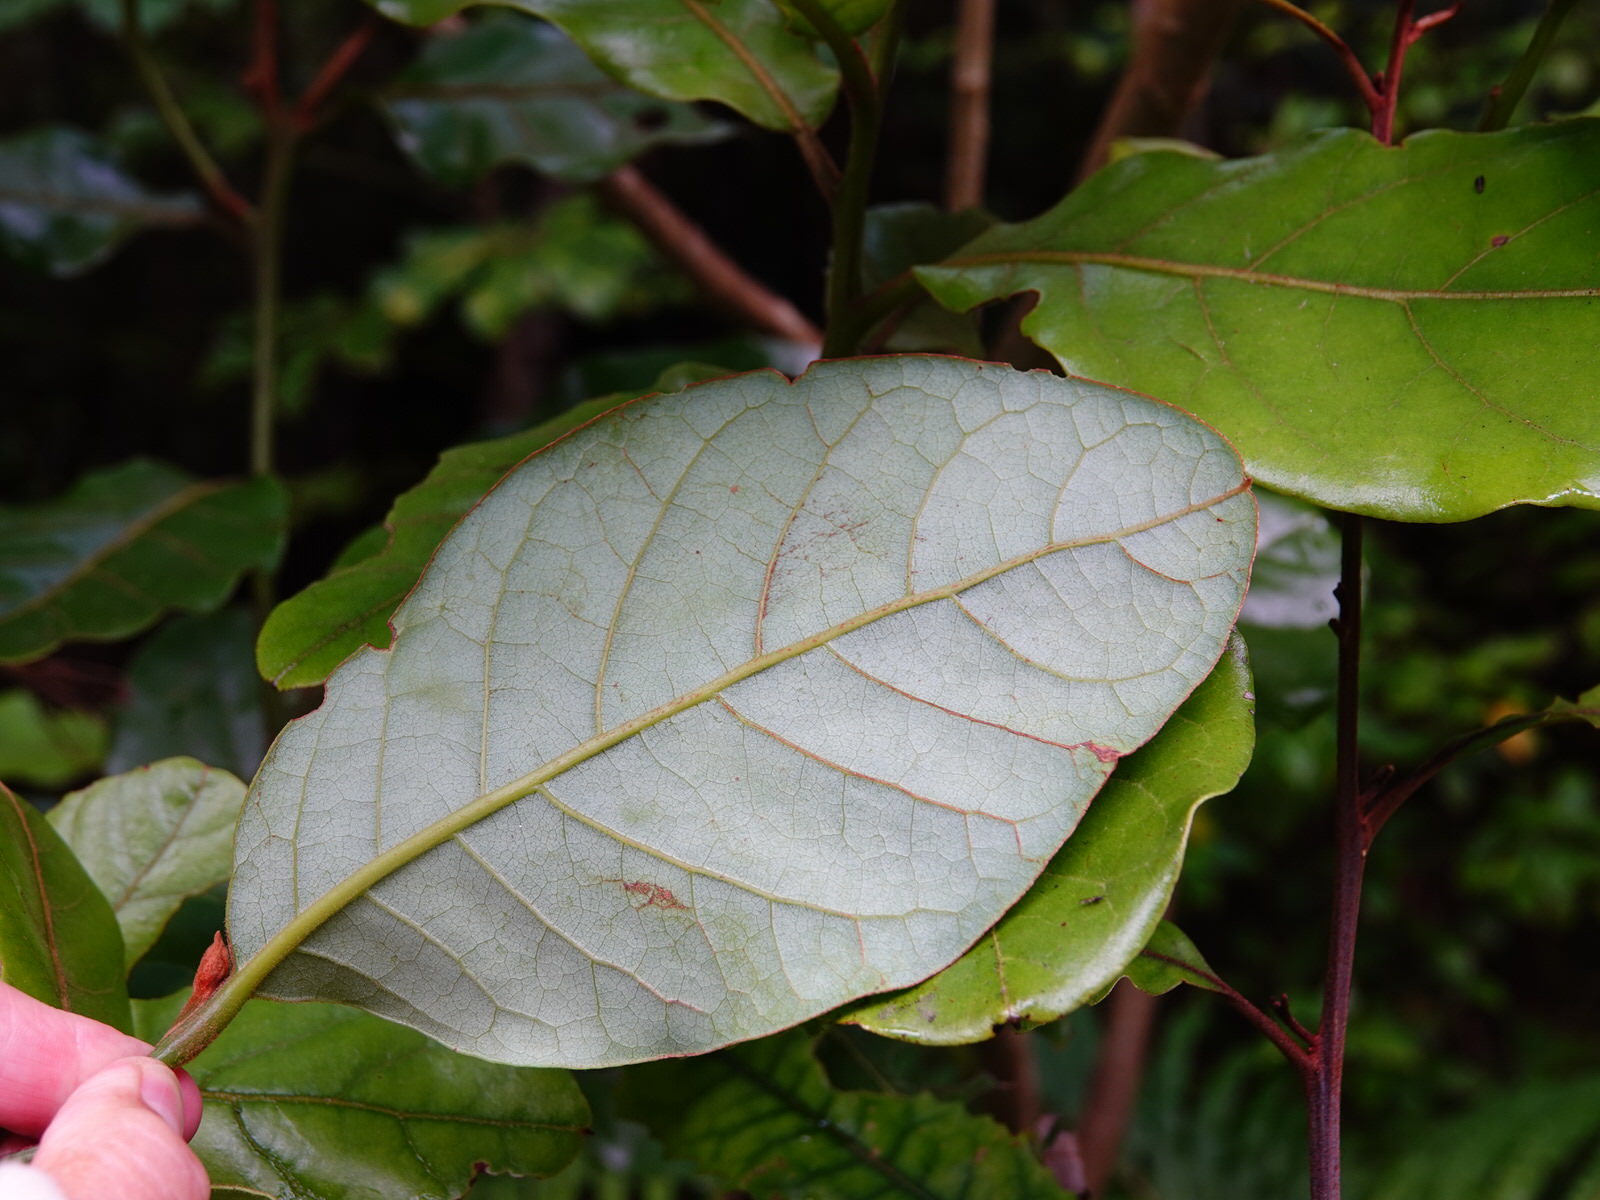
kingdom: Plantae
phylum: Tracheophyta
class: Magnoliopsida
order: Laurales
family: Lauraceae
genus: Beilschmiedia
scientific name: Beilschmiedia tarairi
